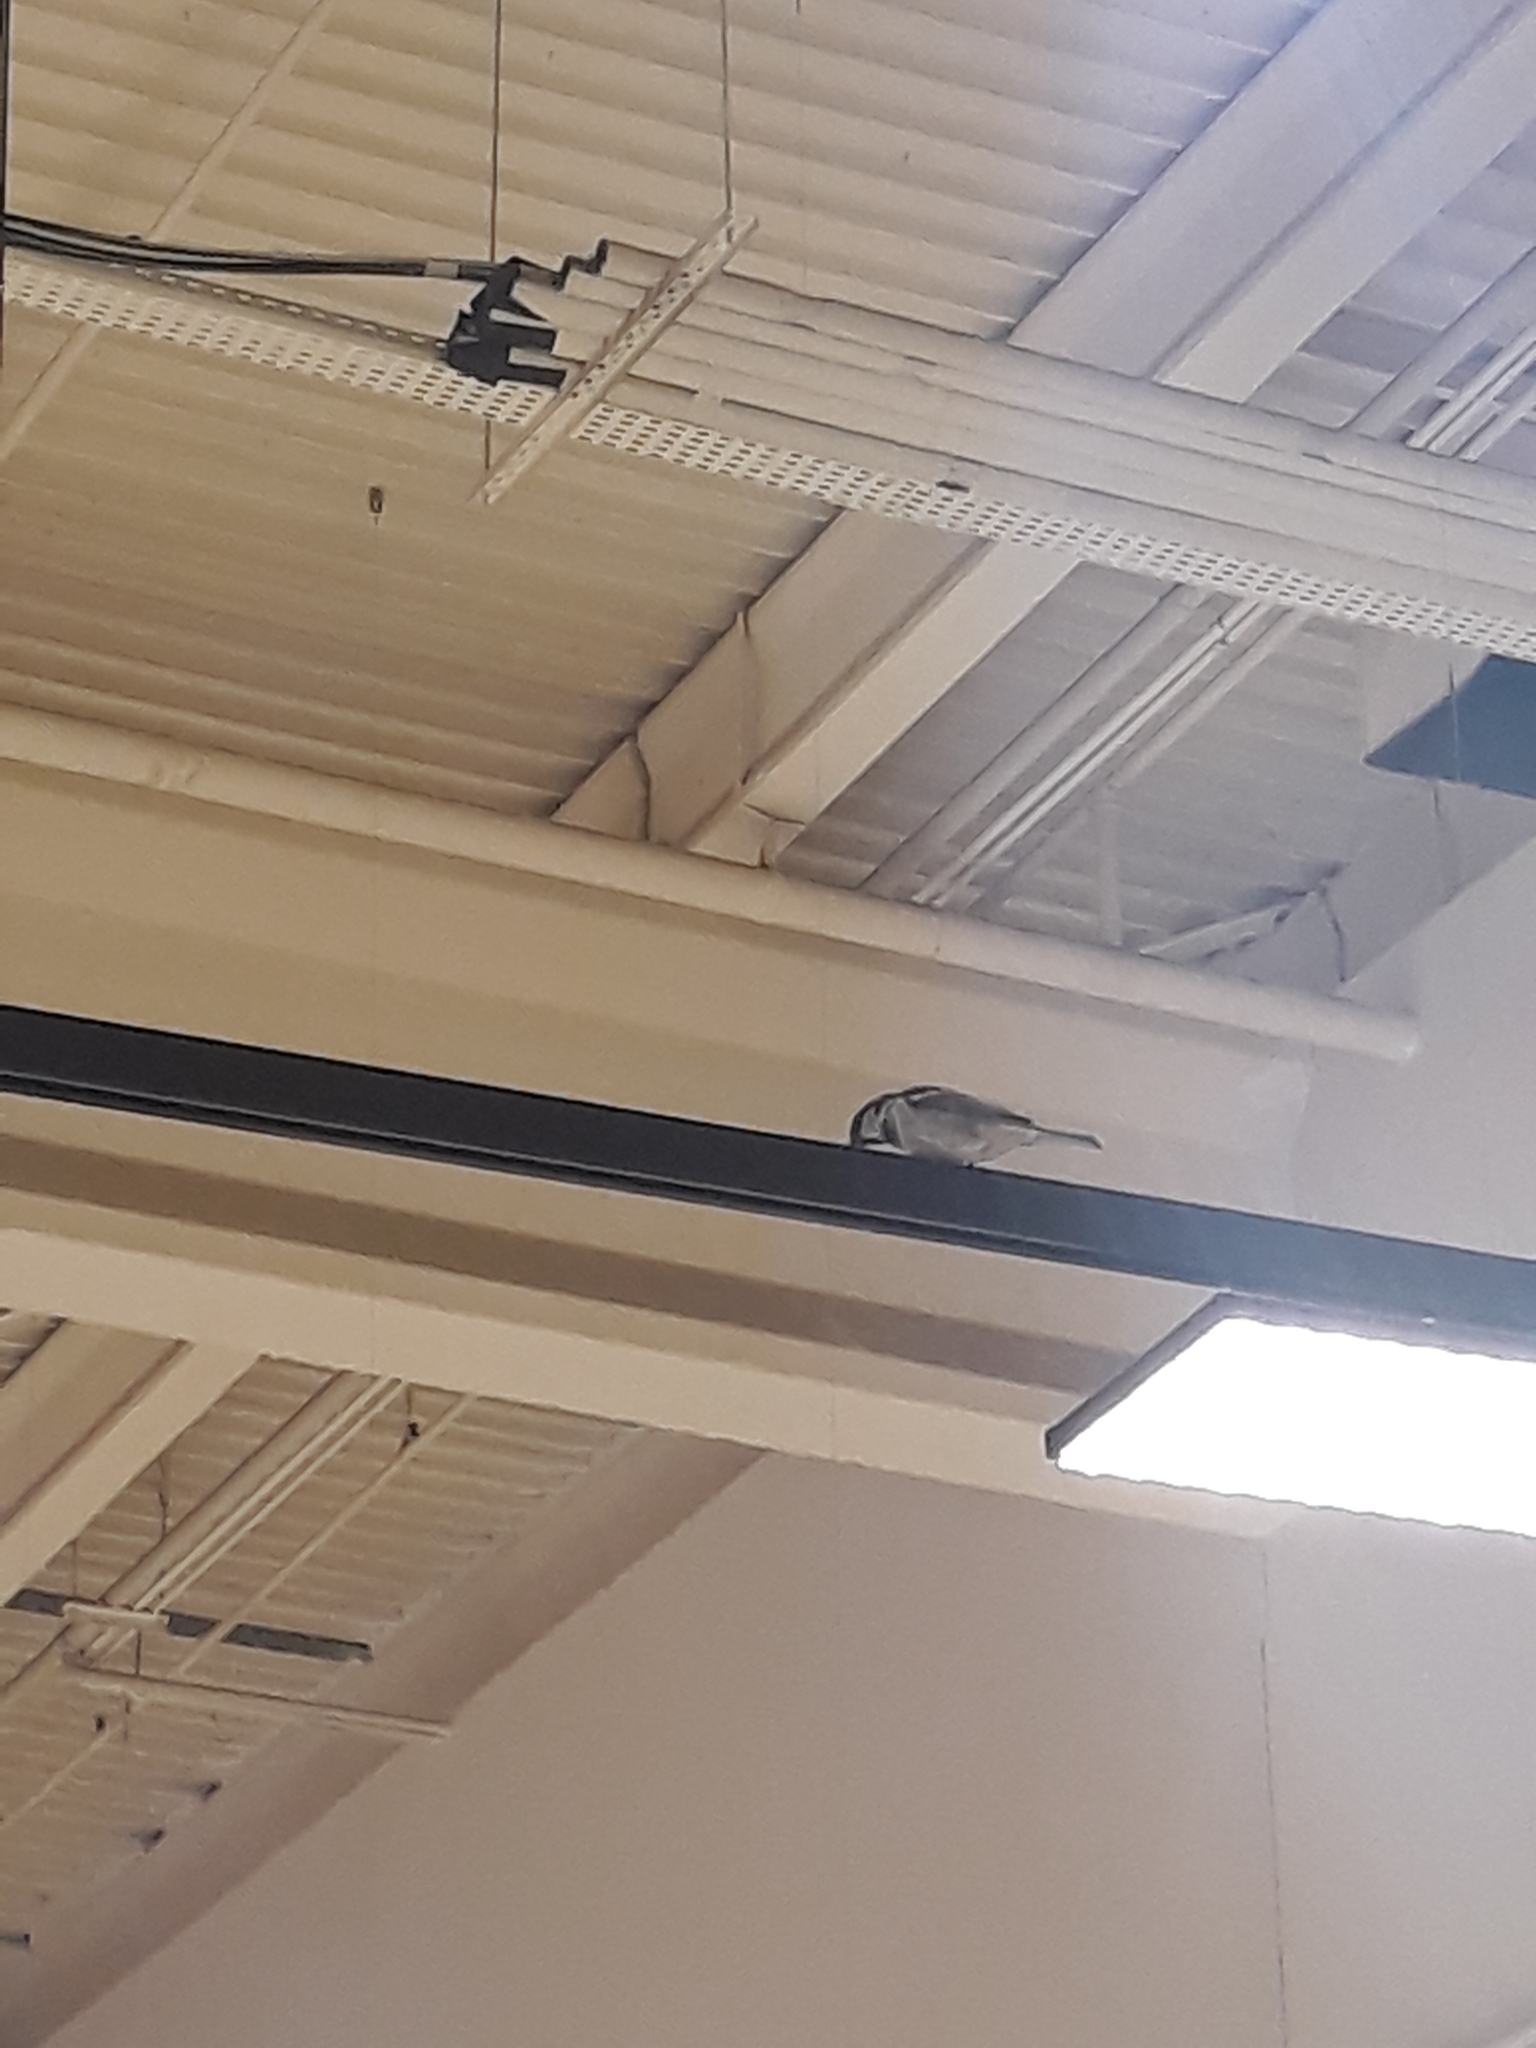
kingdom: Animalia
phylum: Chordata
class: Aves
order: Passeriformes
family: Passeridae
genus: Passer
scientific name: Passer domesticus
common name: House sparrow
